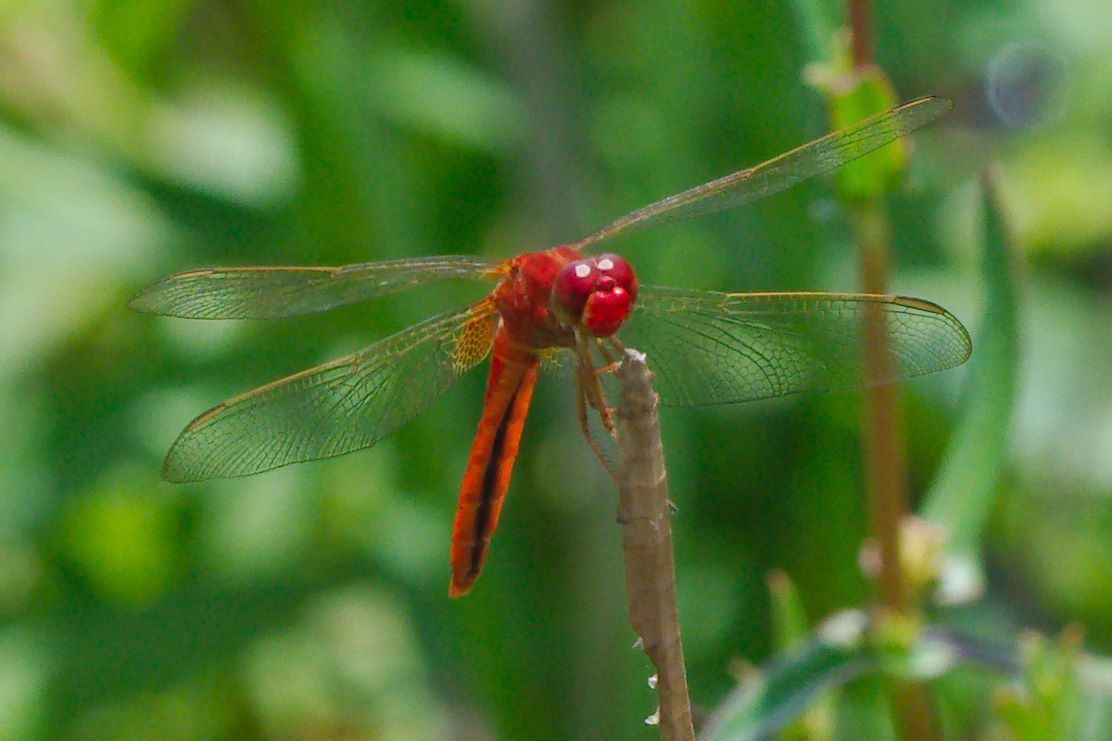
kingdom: Animalia
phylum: Arthropoda
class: Insecta
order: Odonata
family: Libellulidae
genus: Crocothemis
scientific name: Crocothemis servilia
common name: Scarlet skimmer
